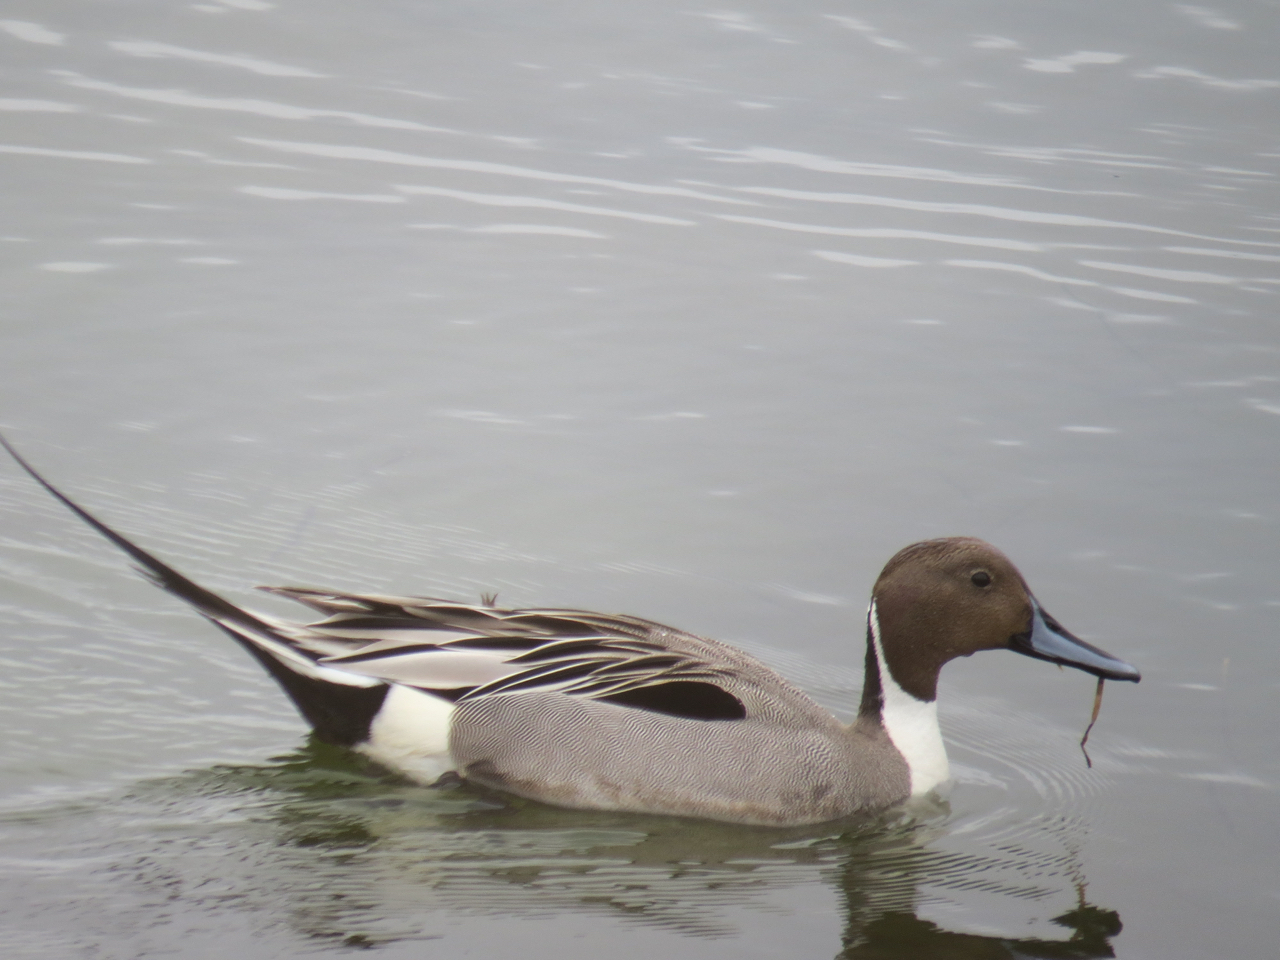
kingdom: Animalia
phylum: Chordata
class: Aves
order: Anseriformes
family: Anatidae
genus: Anas
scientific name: Anas acuta
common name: Northern pintail
